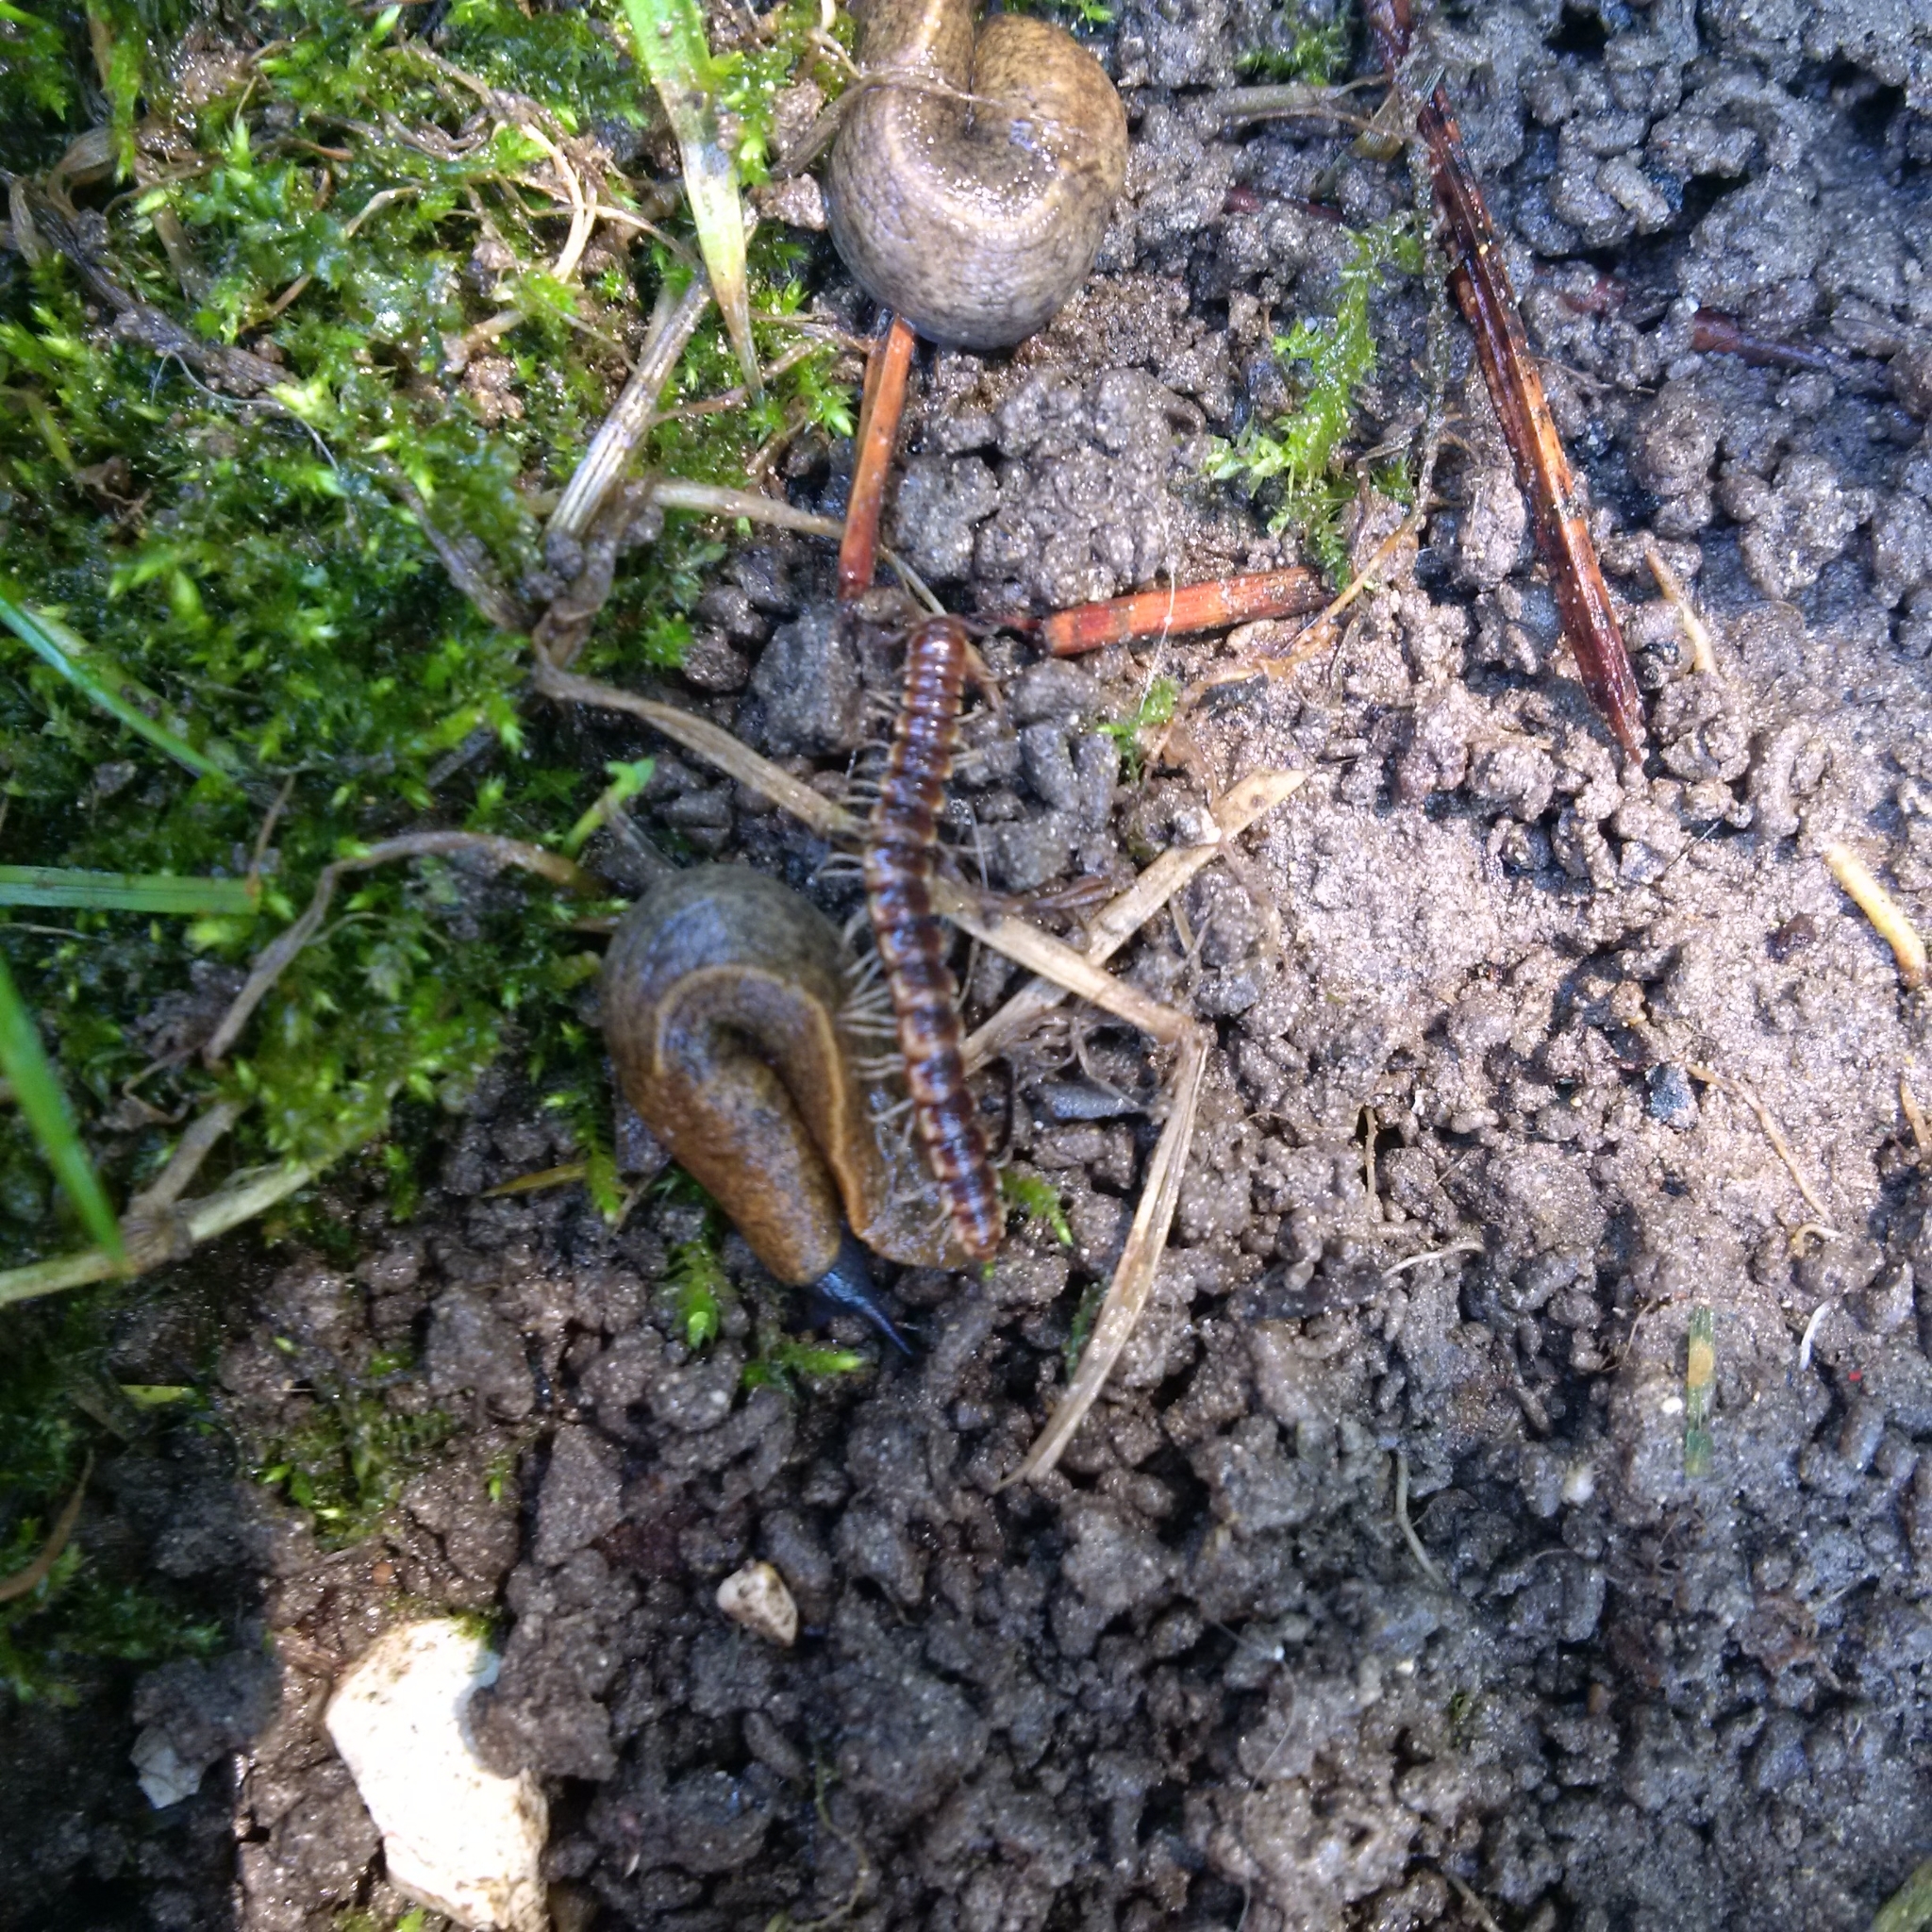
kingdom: Animalia
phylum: Arthropoda
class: Diplopoda
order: Polydesmida
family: Paradoxosomatidae
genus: Oxidus
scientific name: Oxidus gracilis
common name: Greenhouse millipede
